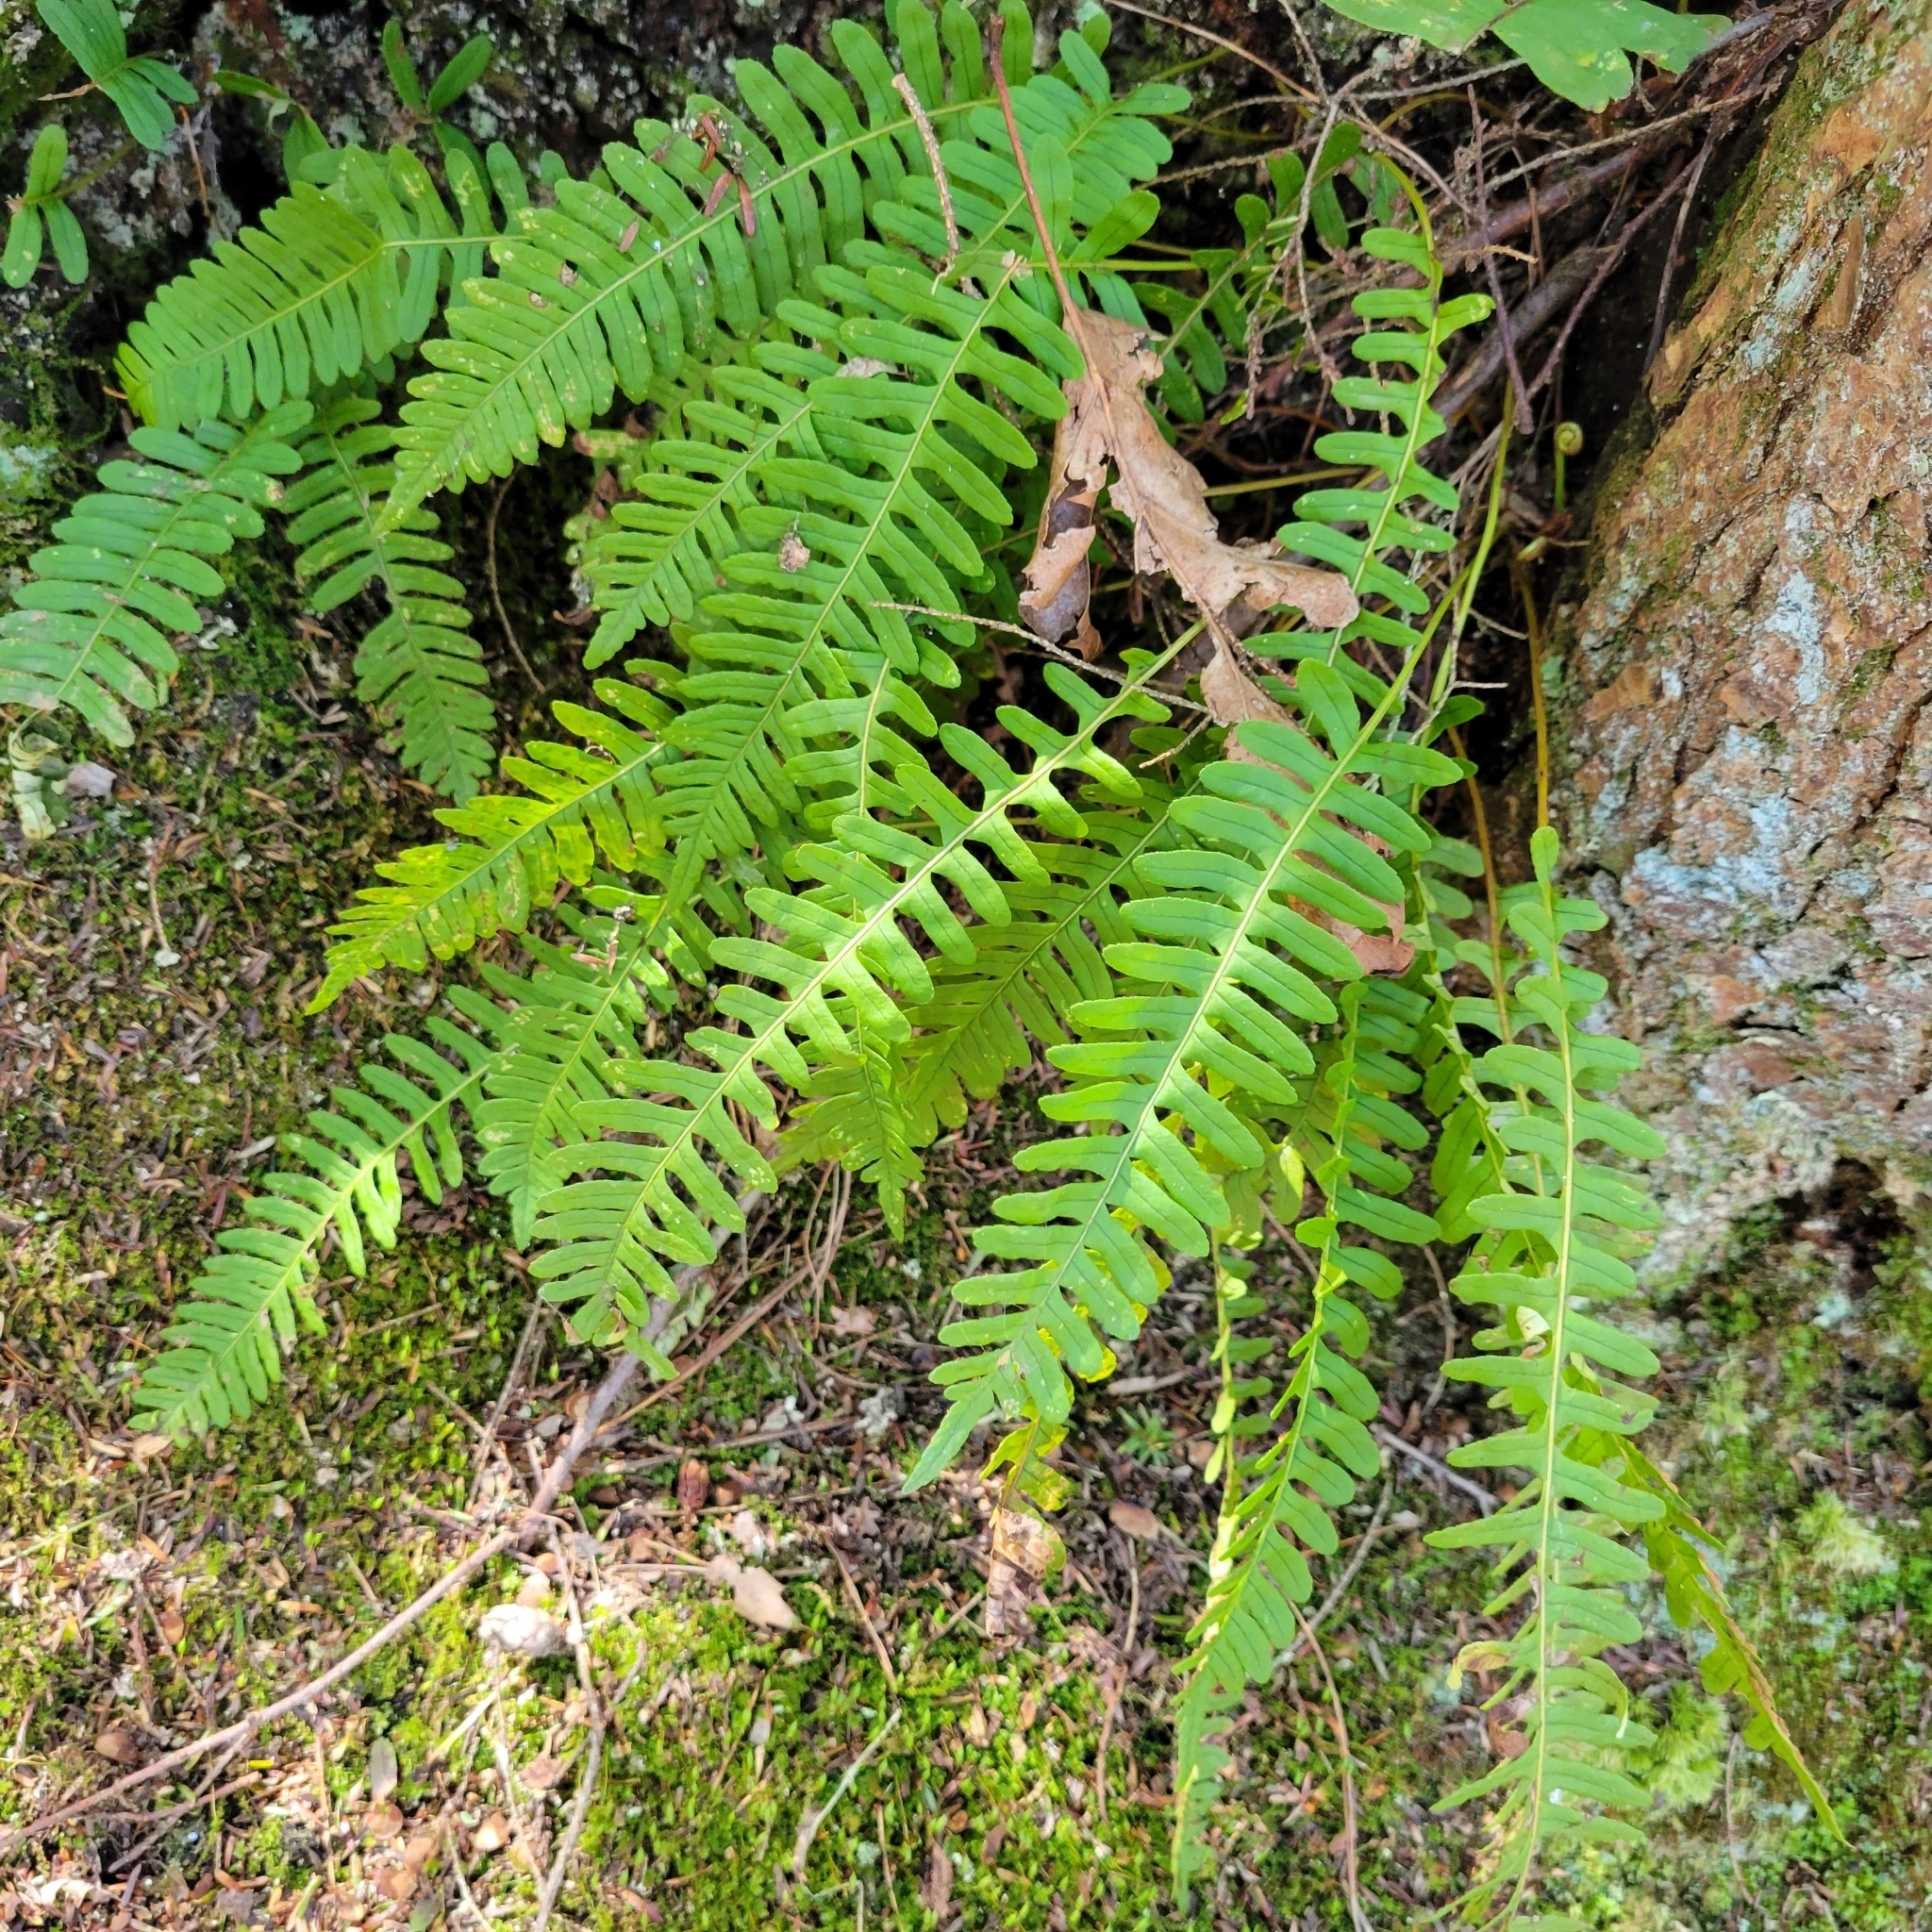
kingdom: Plantae
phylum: Tracheophyta
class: Polypodiopsida
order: Polypodiales
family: Polypodiaceae
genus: Polypodium
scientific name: Polypodium virginianum
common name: American wall fern
